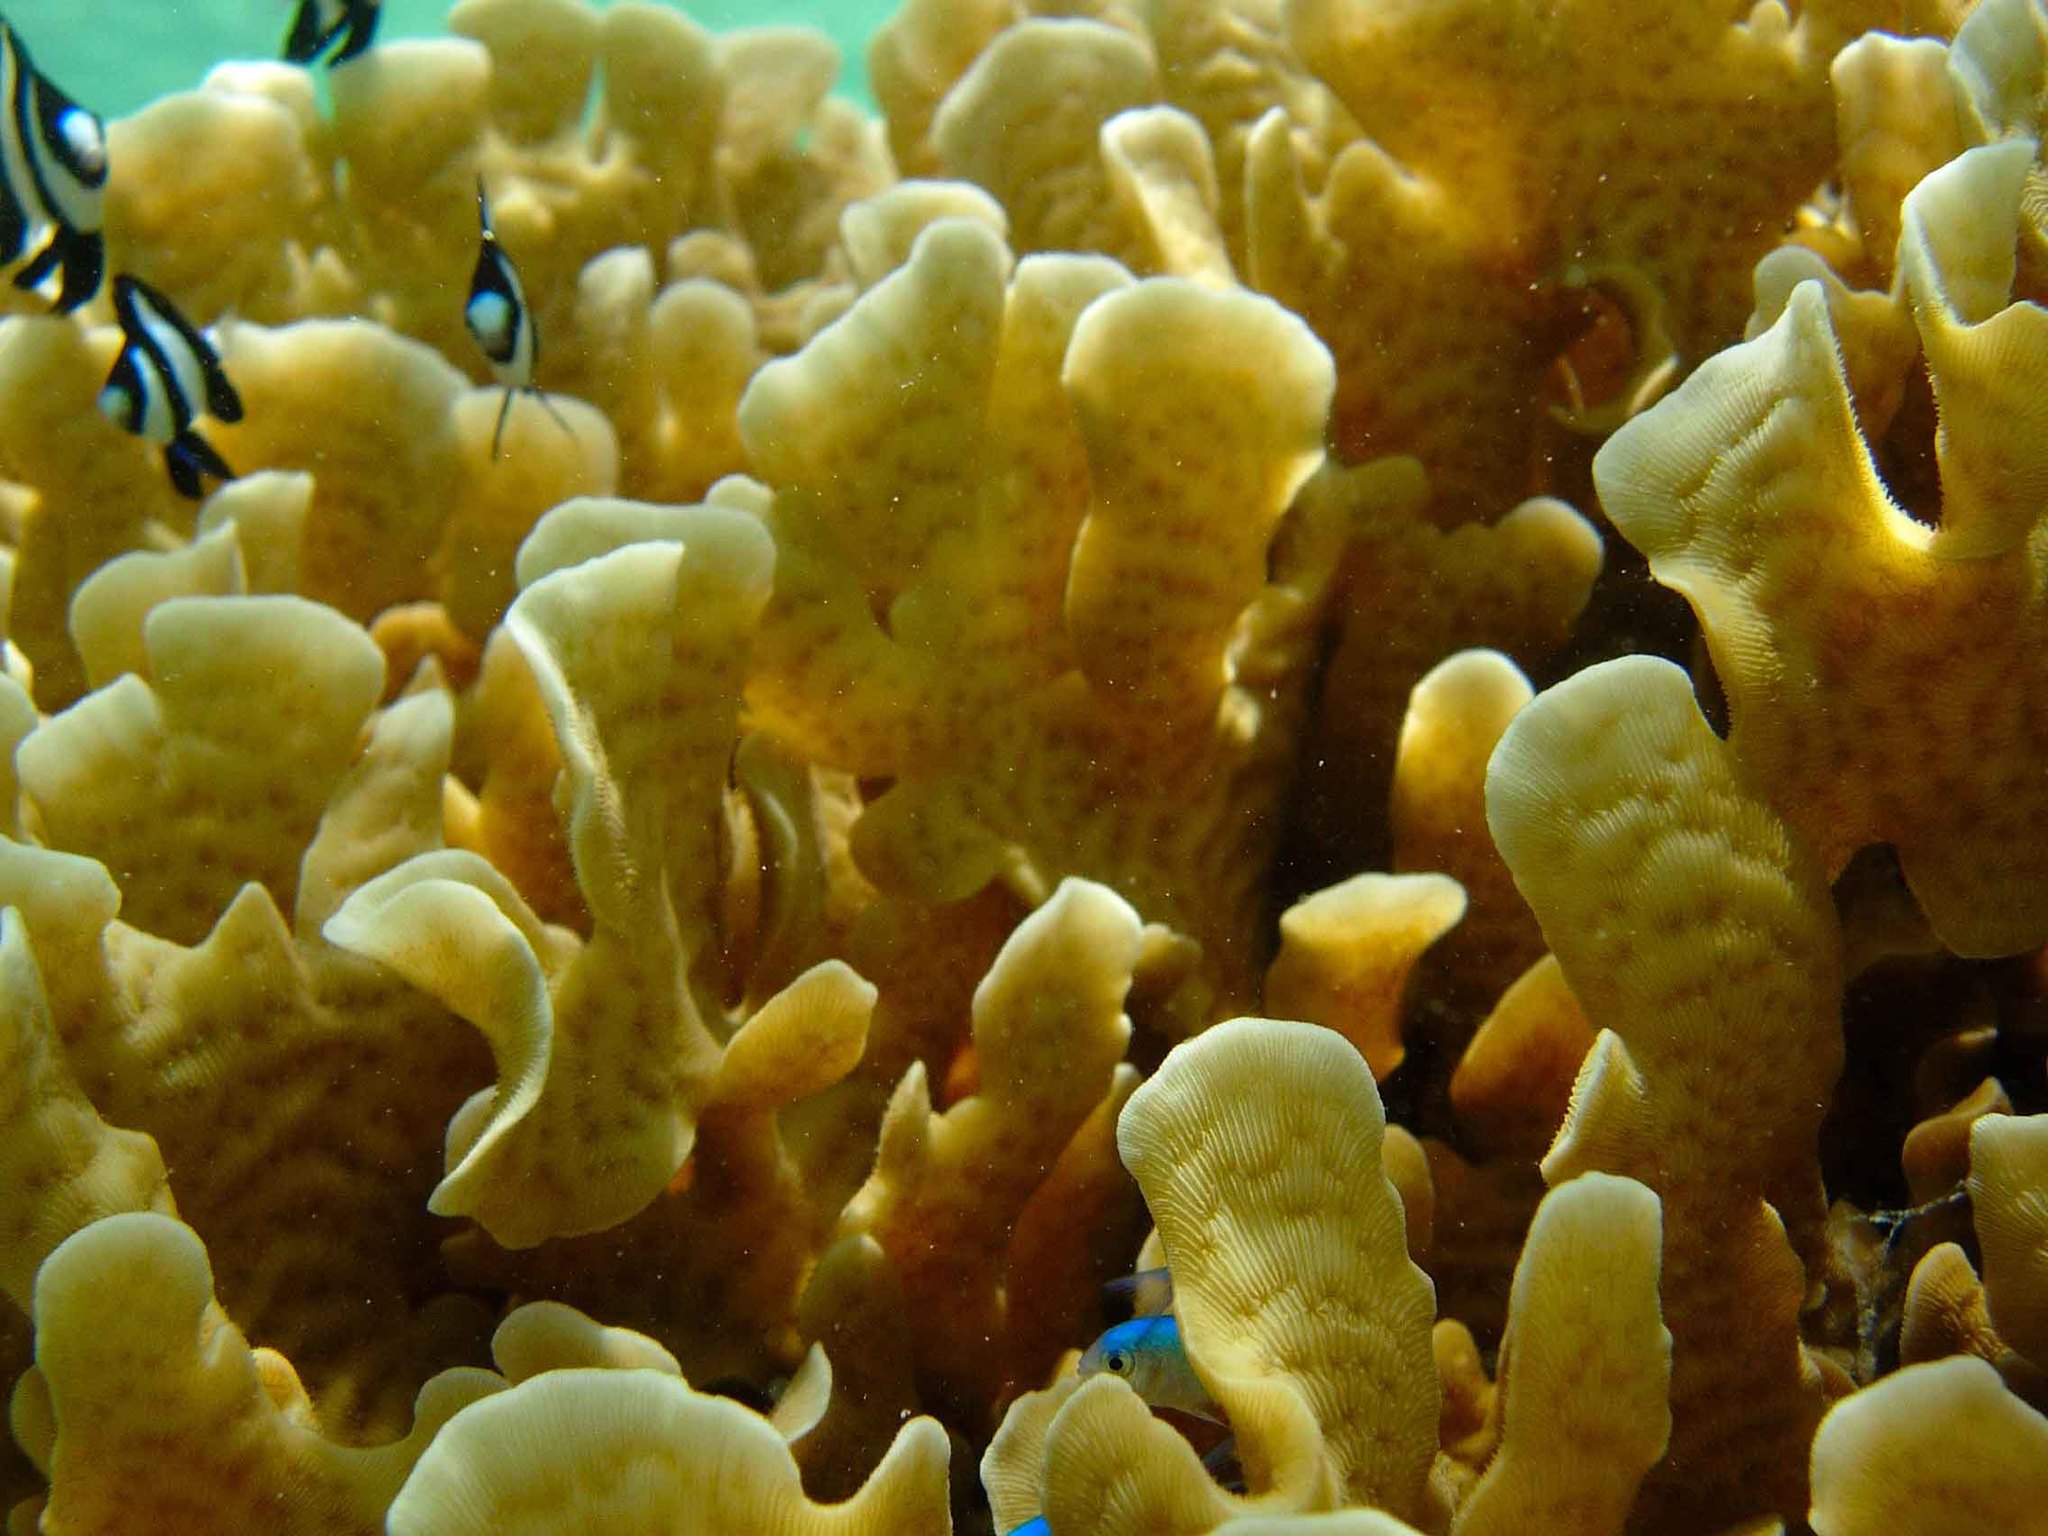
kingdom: Animalia
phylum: Cnidaria
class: Anthozoa
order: Scleractinia
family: Agariciidae
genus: Pavona
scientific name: Pavona cactus
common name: Leaf coral
